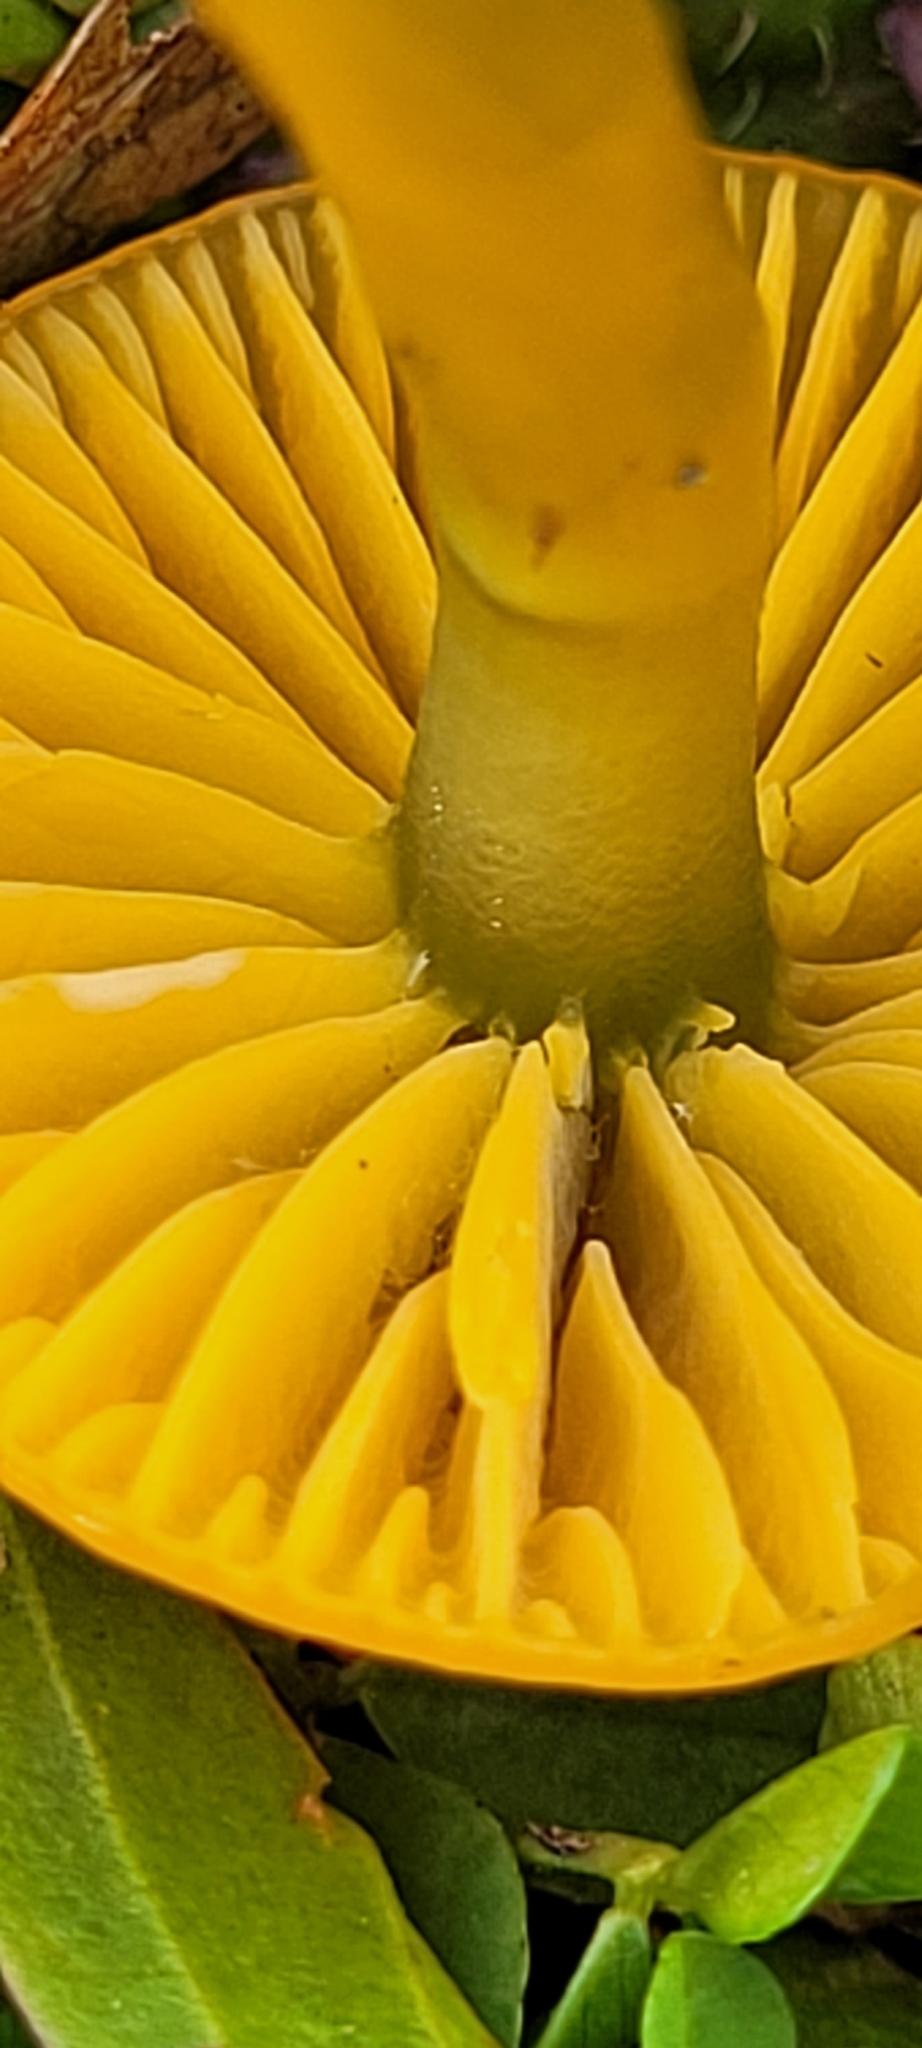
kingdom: Fungi
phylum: Basidiomycota
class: Agaricomycetes
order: Agaricales
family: Hygrophoraceae
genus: Gliophorus
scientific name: Gliophorus psittacinus
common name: Parrot wax-cap
